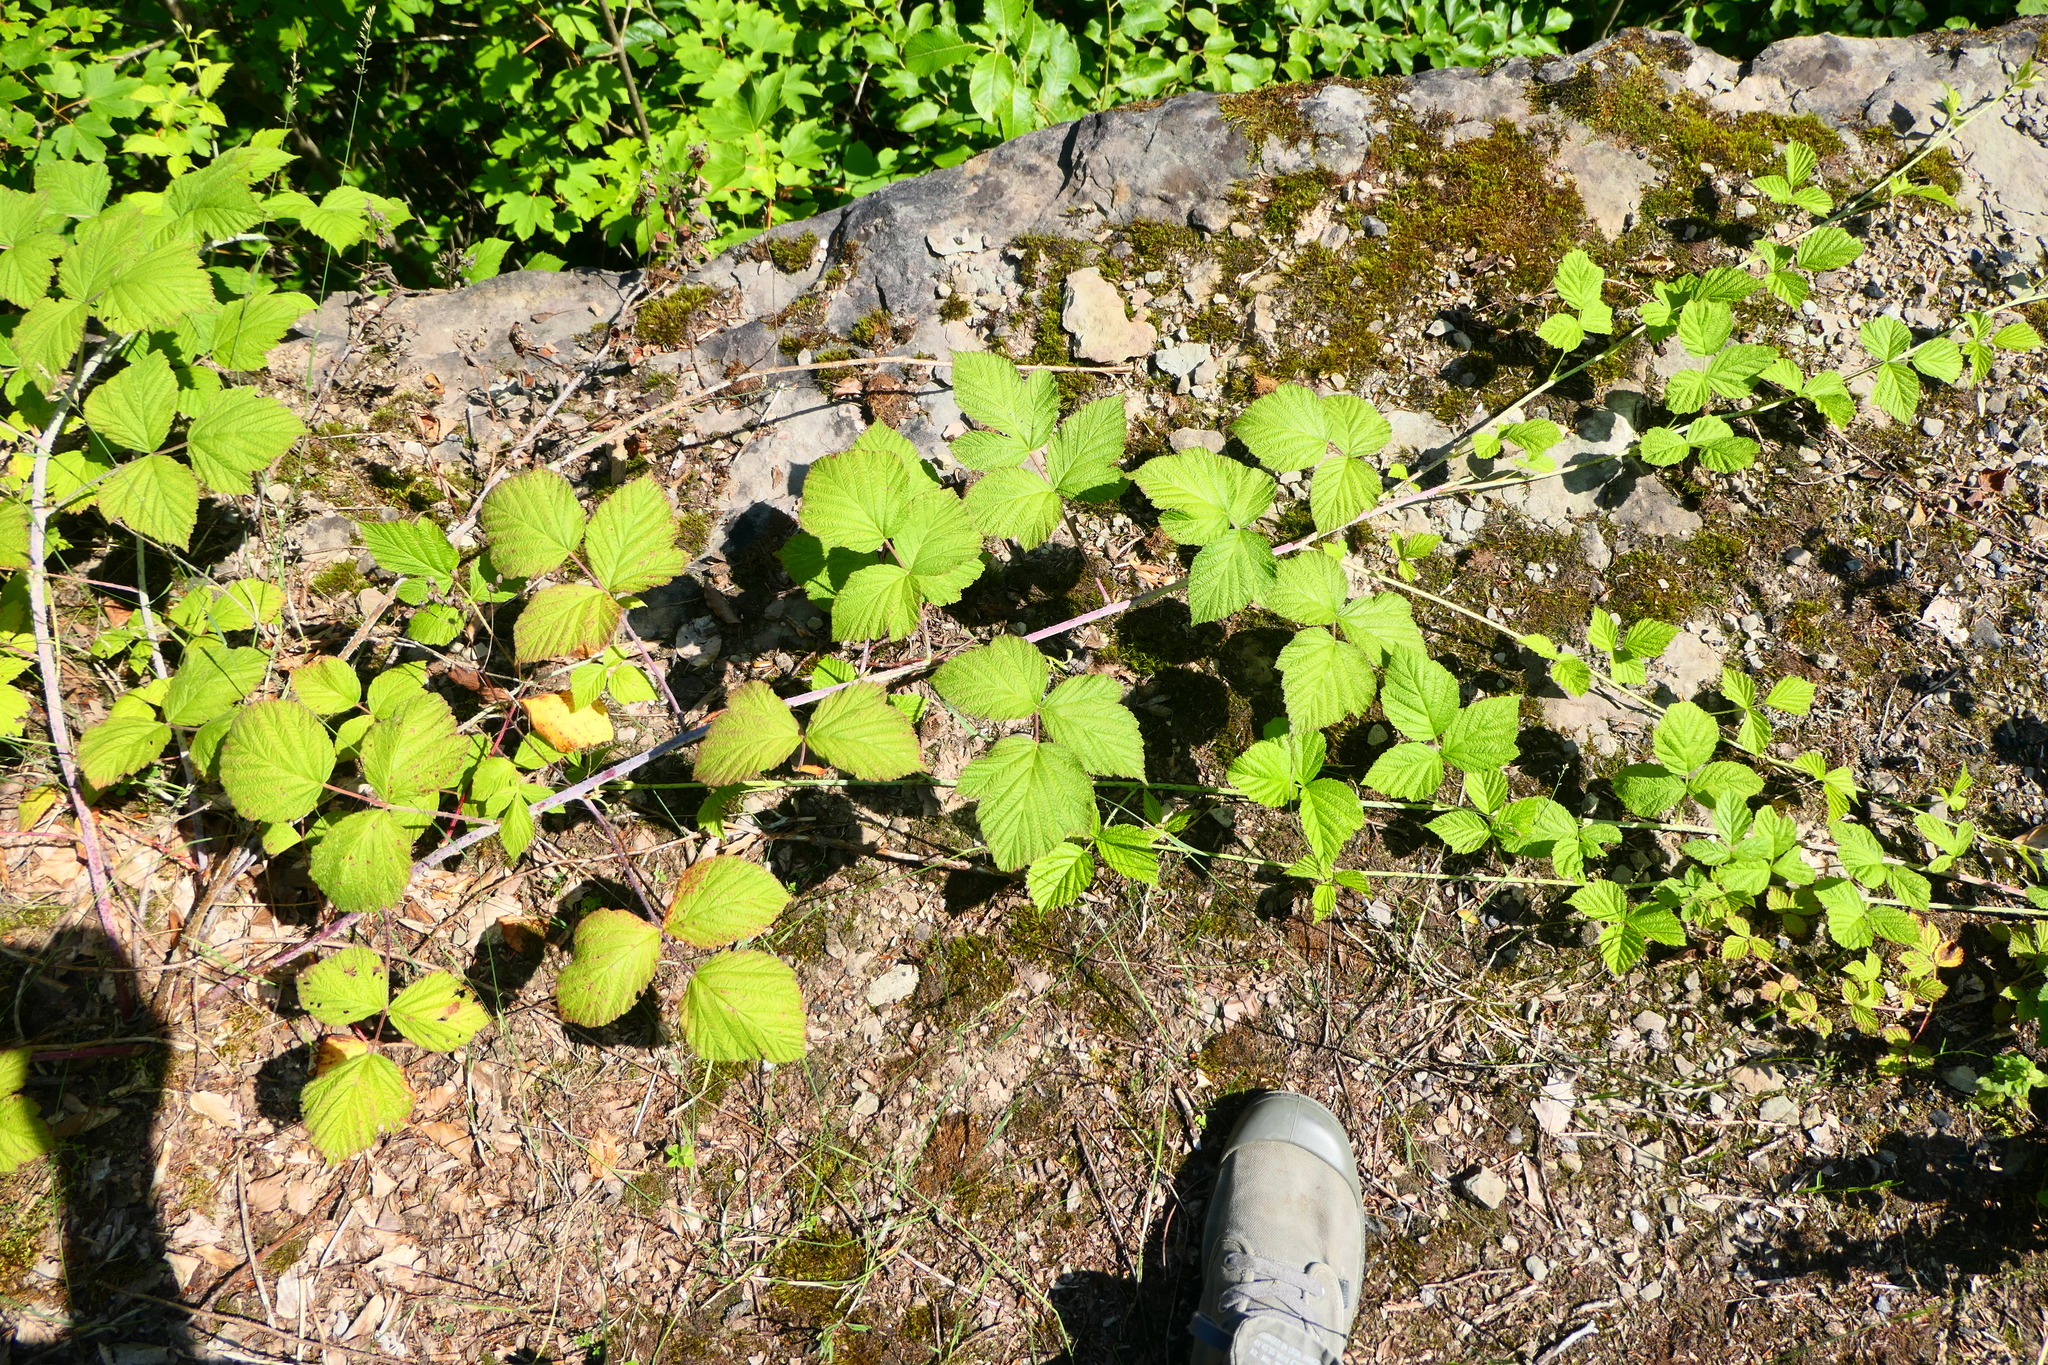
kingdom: Plantae
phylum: Tracheophyta
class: Magnoliopsida
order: Rosales
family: Rosaceae
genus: Rubus
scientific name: Rubus caesius
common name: Dewberry
